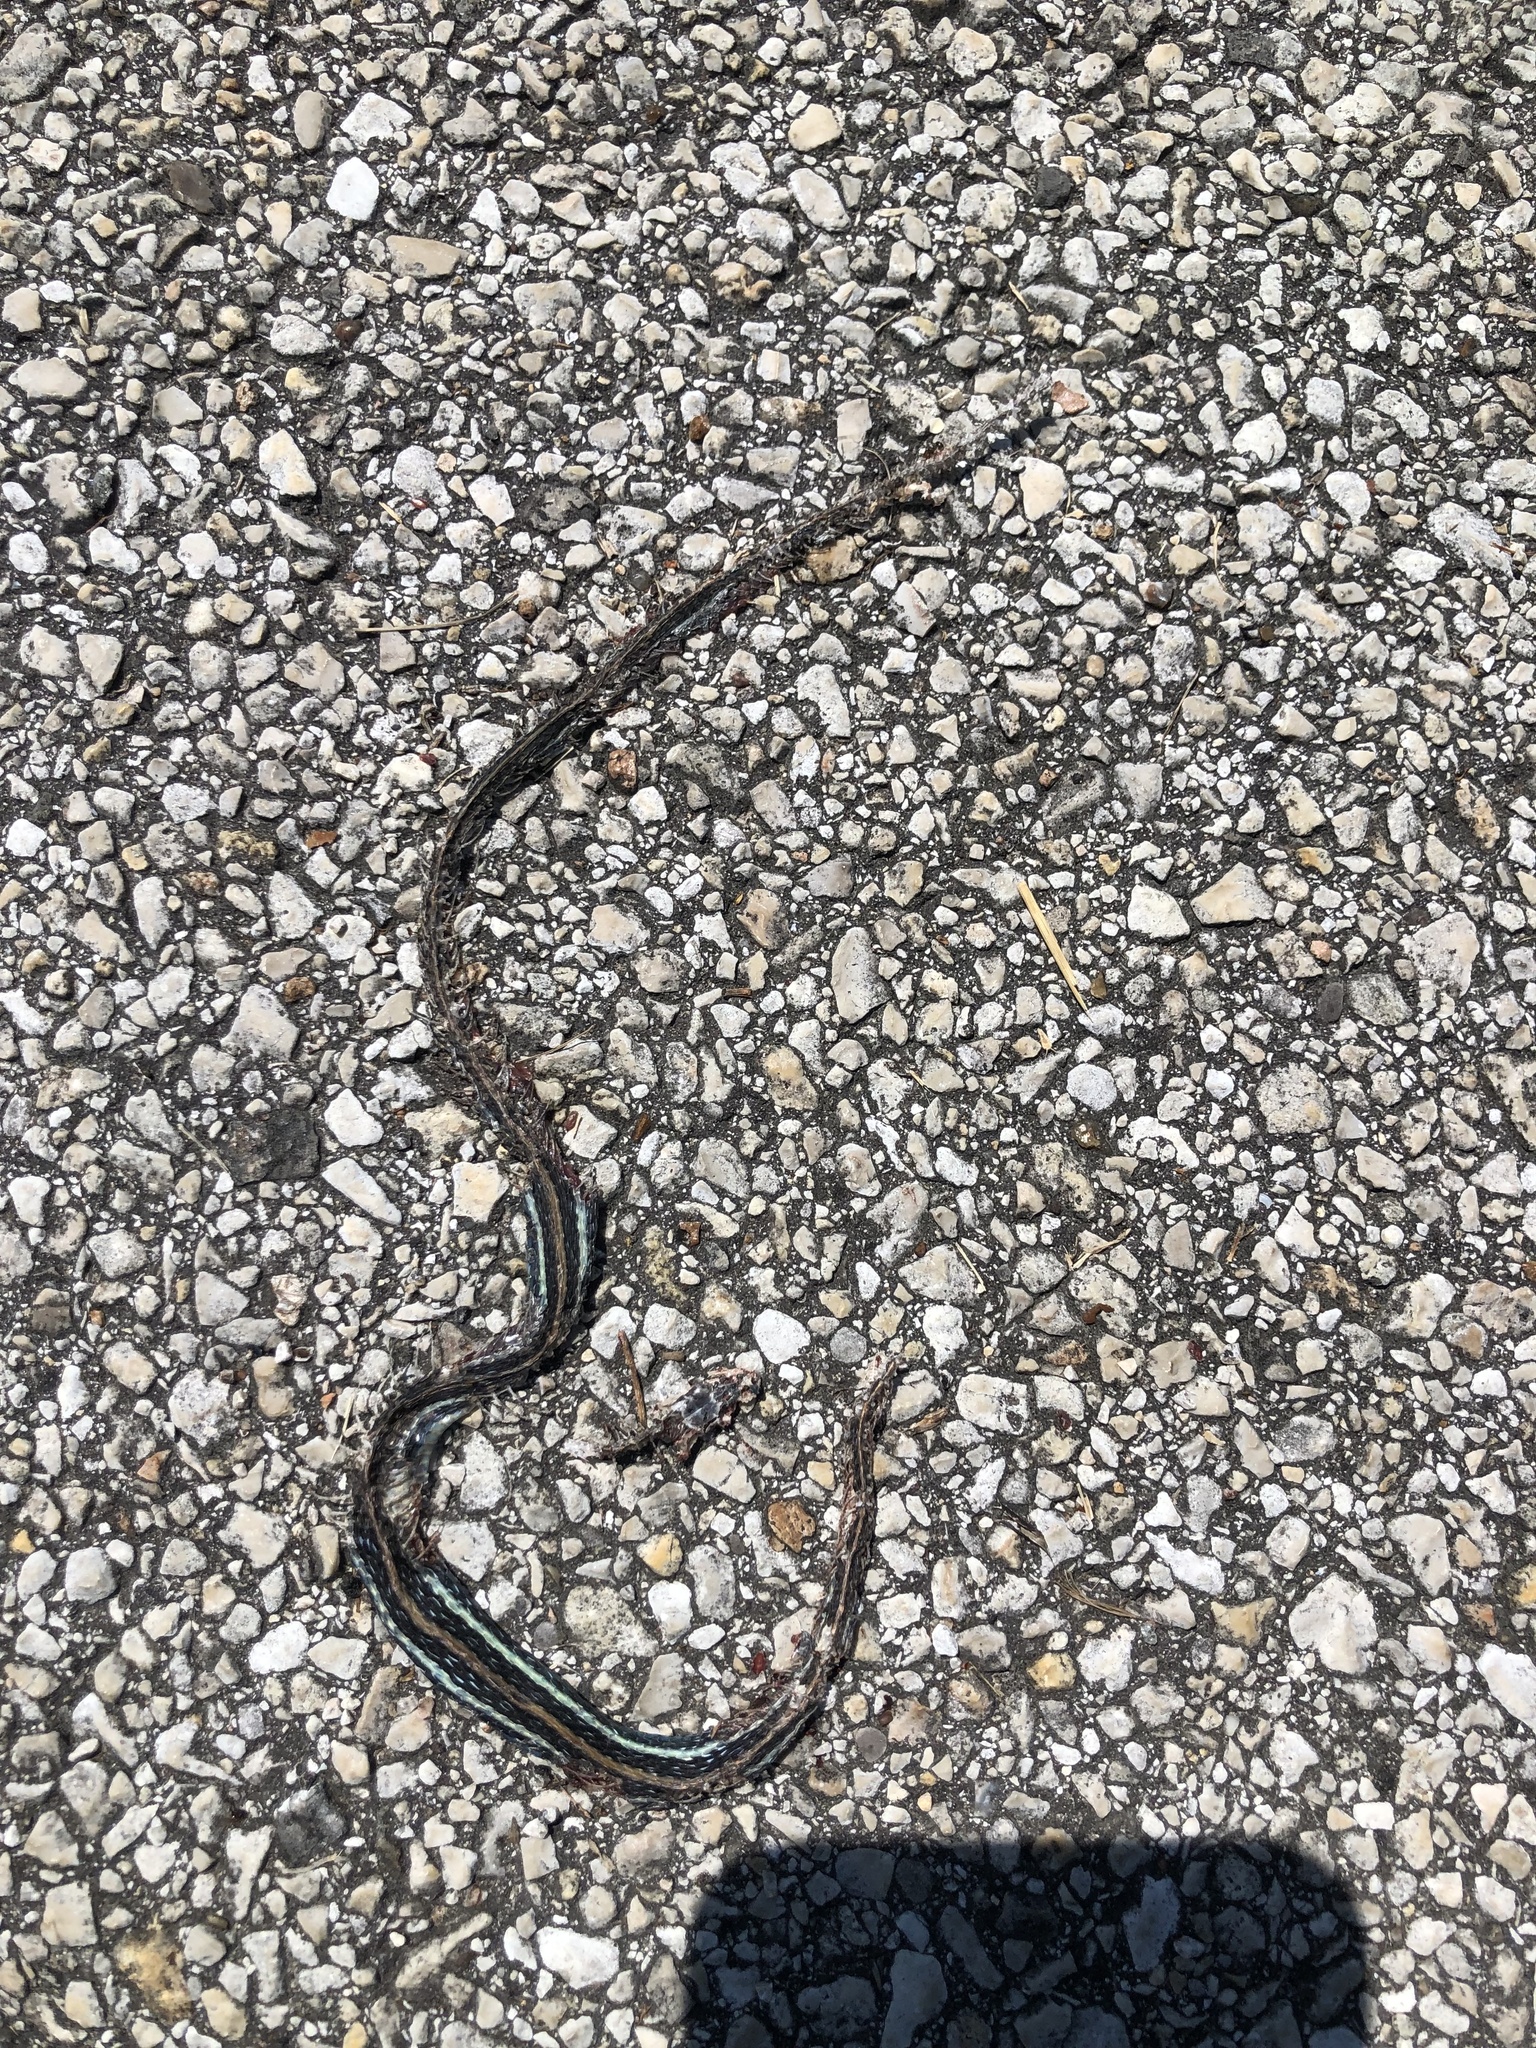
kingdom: Animalia
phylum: Chordata
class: Squamata
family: Colubridae
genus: Thamnophis
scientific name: Thamnophis proximus
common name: Western ribbon snake
